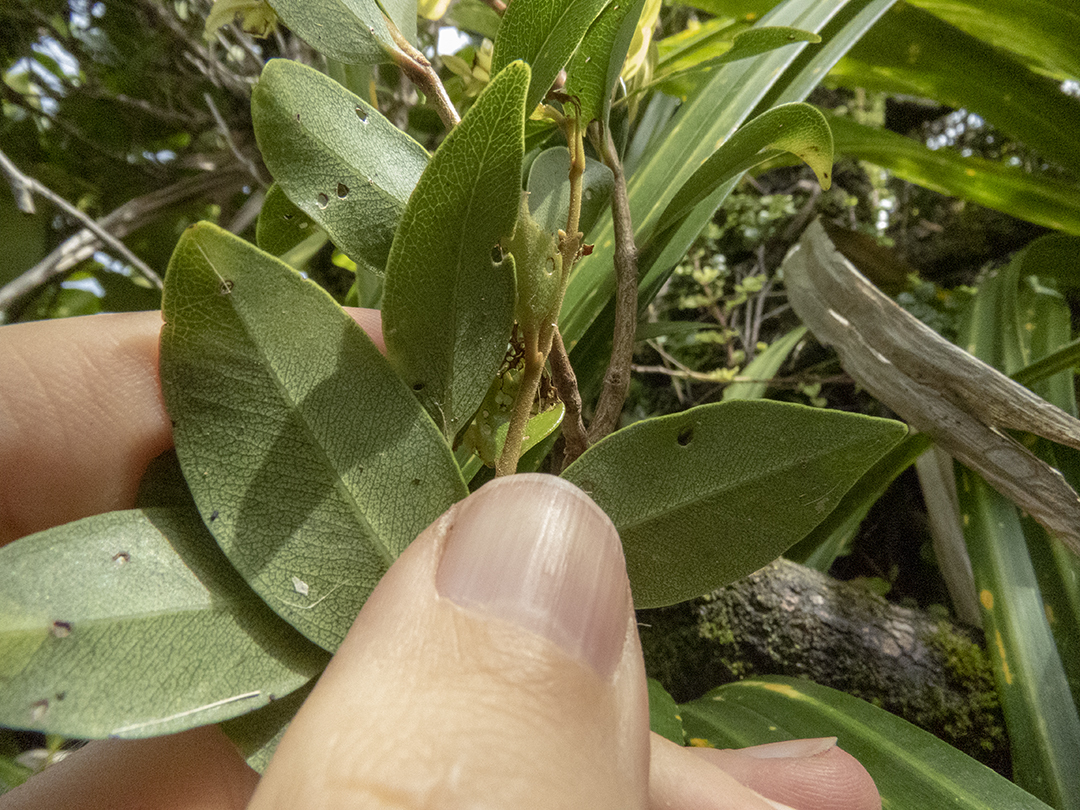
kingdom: Plantae
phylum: Tracheophyta
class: Magnoliopsida
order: Myrtales
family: Myrtaceae
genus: Metrosideros
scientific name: Metrosideros robusta
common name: Northern rata
